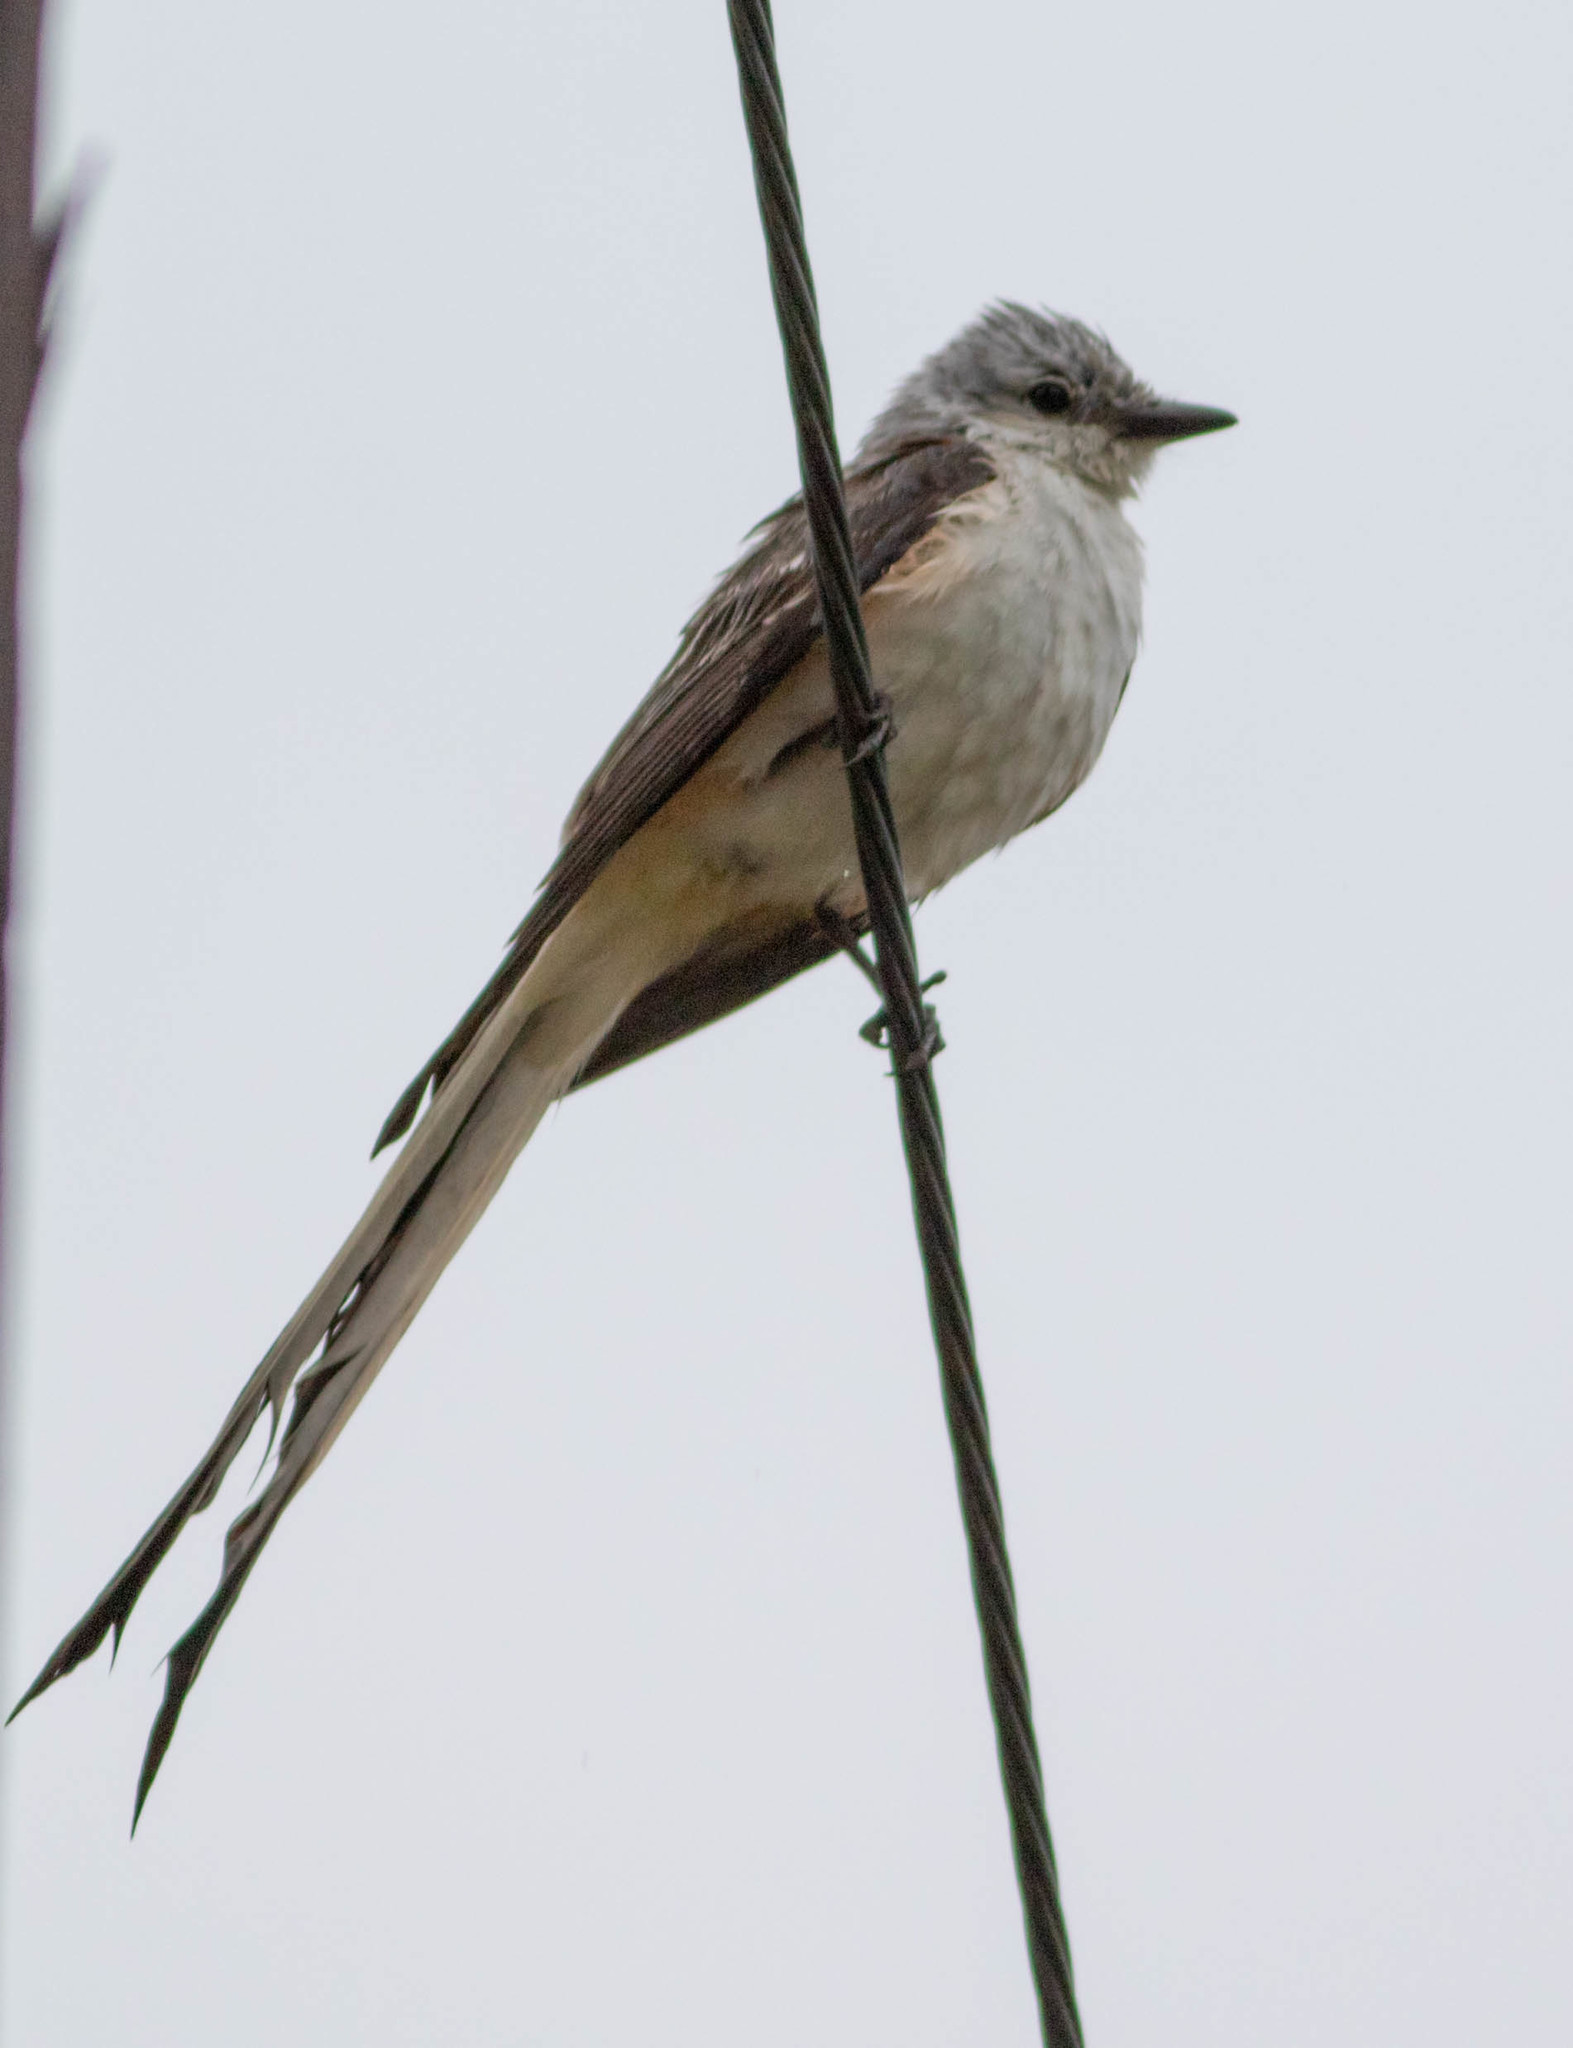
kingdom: Animalia
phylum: Chordata
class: Aves
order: Passeriformes
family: Tyrannidae
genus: Tyrannus
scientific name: Tyrannus forficatus
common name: Scissor-tailed flycatcher
